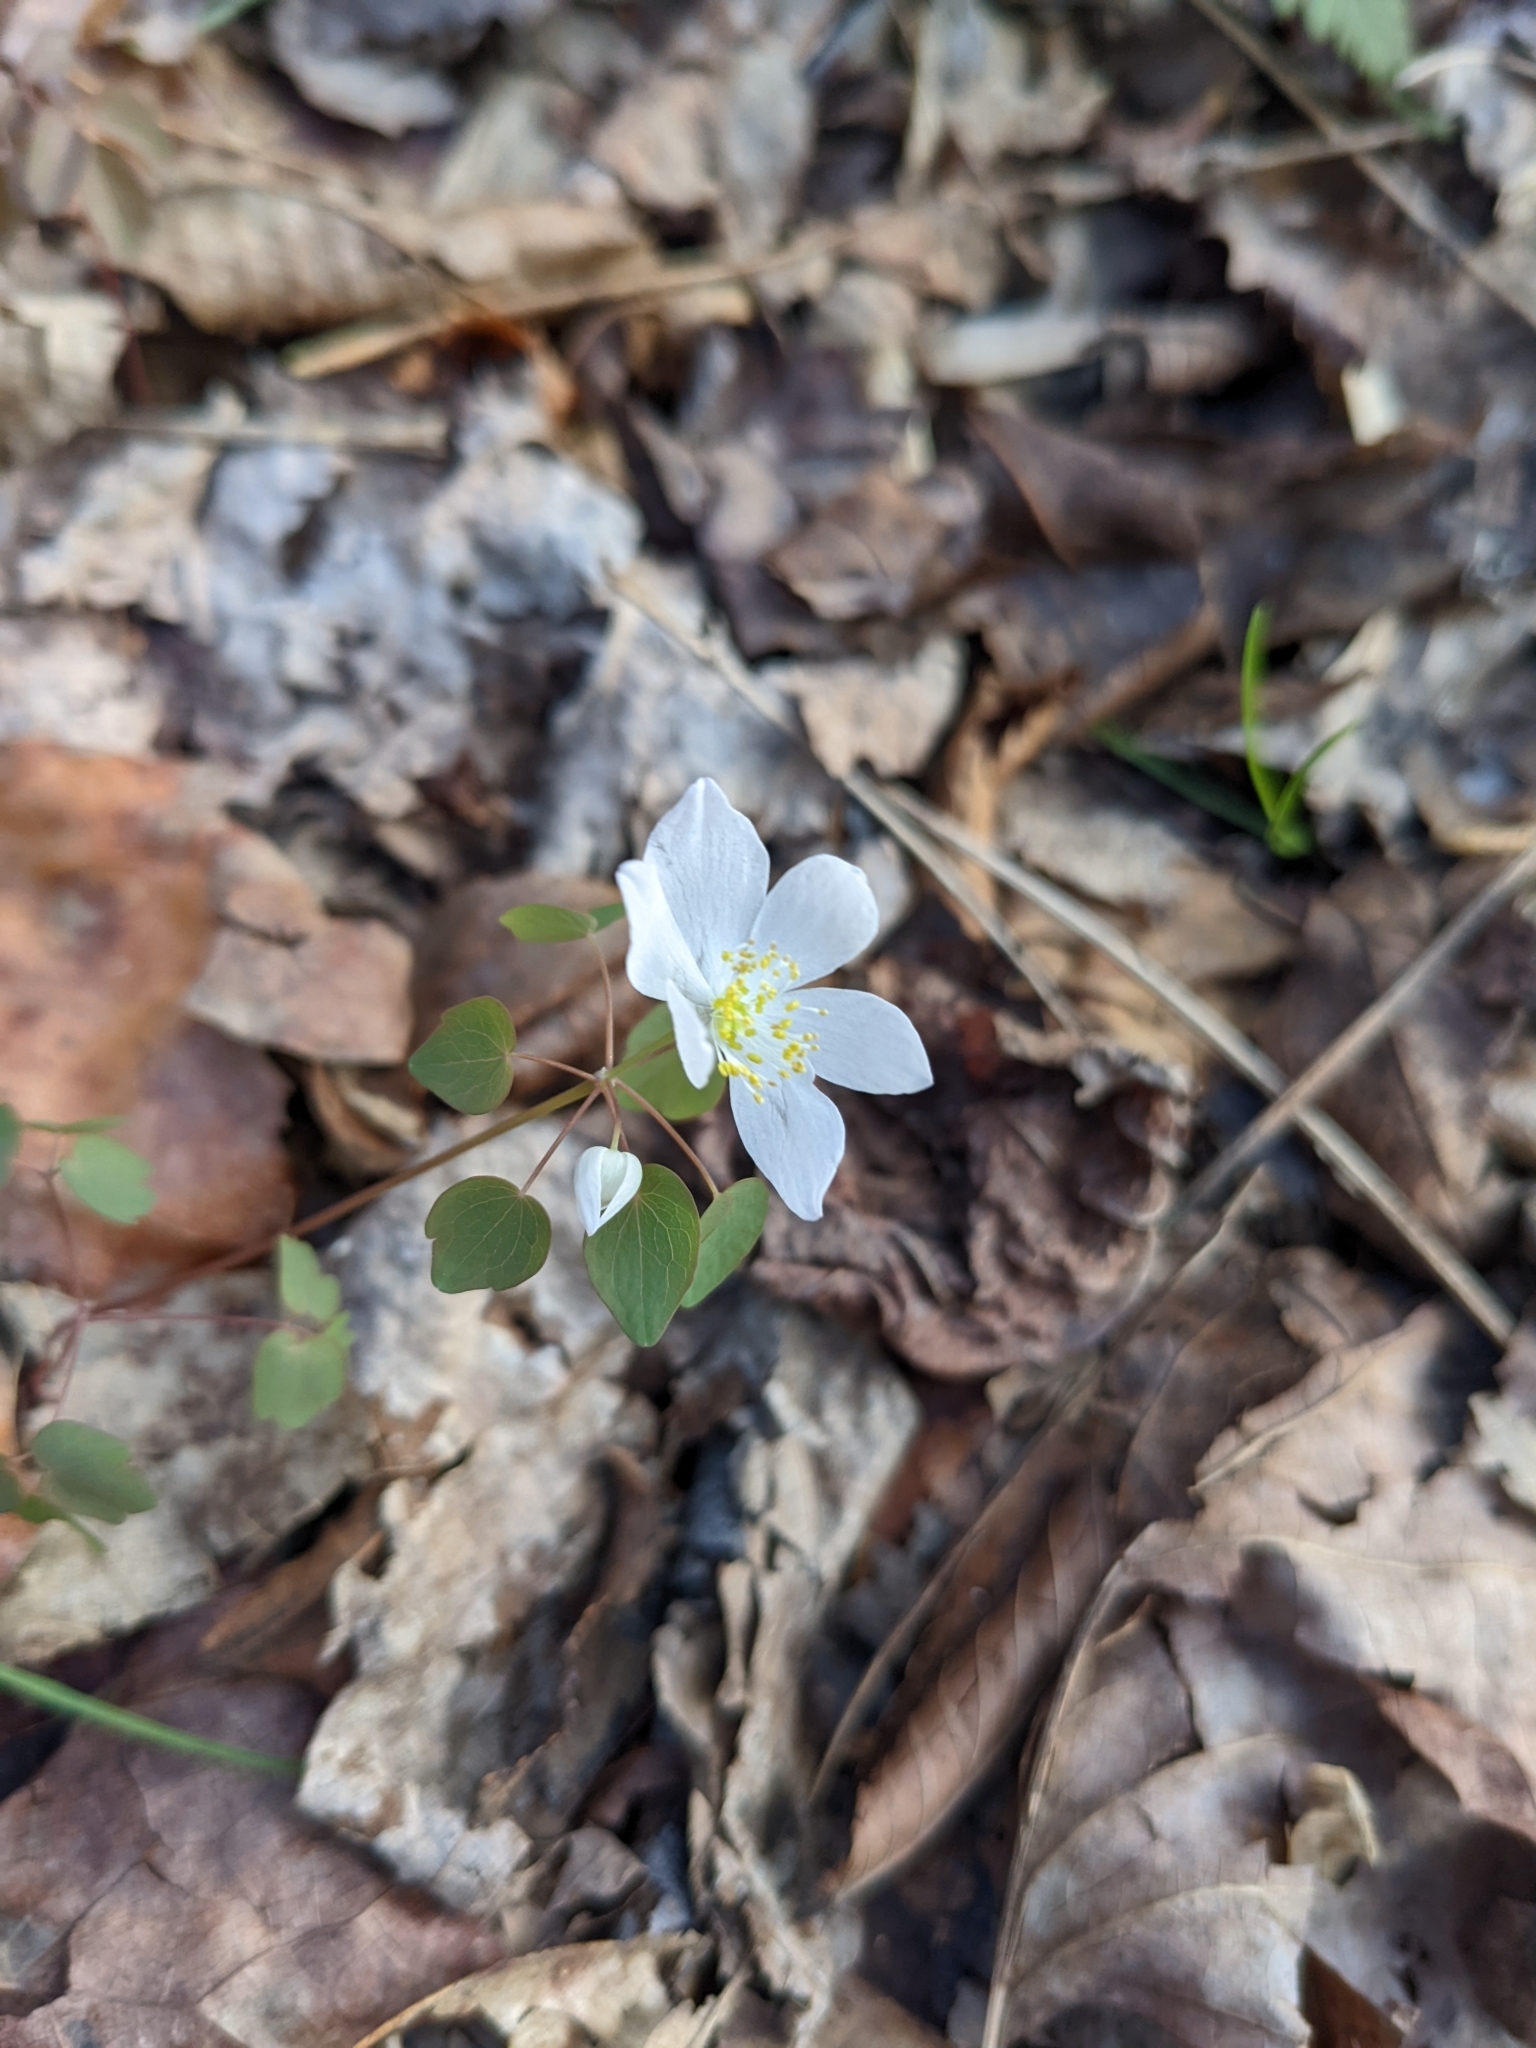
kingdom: Plantae
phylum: Tracheophyta
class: Magnoliopsida
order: Ranunculales
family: Ranunculaceae
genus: Thalictrum
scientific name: Thalictrum thalictroides
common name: Rue-anemone
